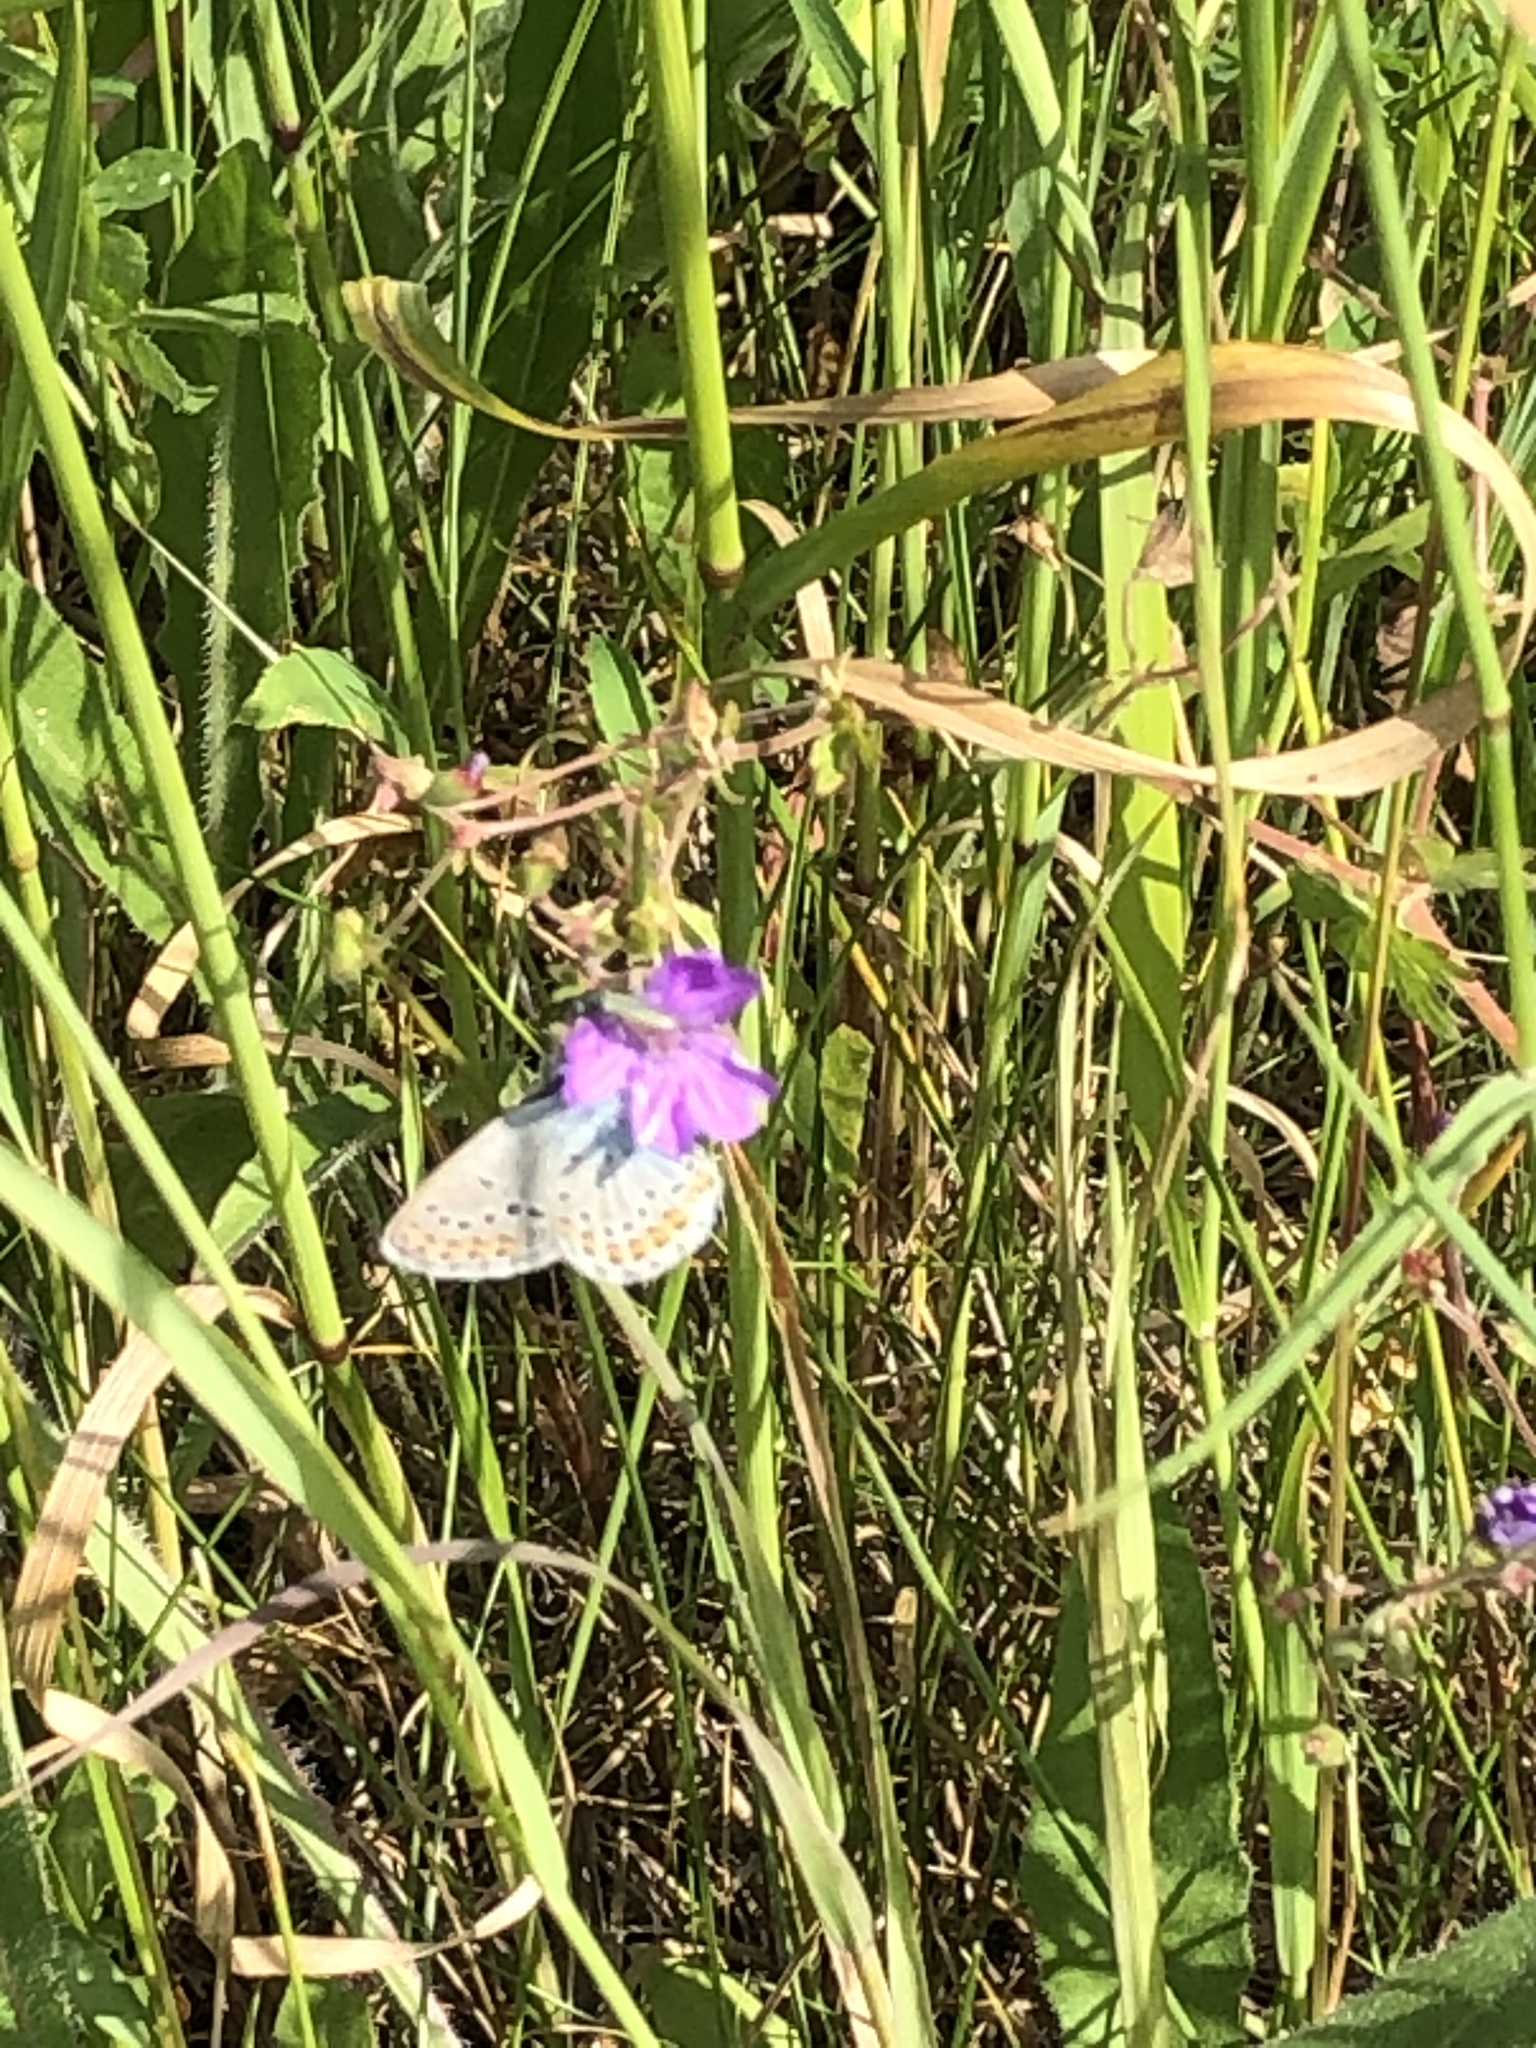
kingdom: Animalia
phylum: Arthropoda
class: Insecta
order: Lepidoptera
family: Lycaenidae
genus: Polyommatus
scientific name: Polyommatus icarus
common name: Common blue
